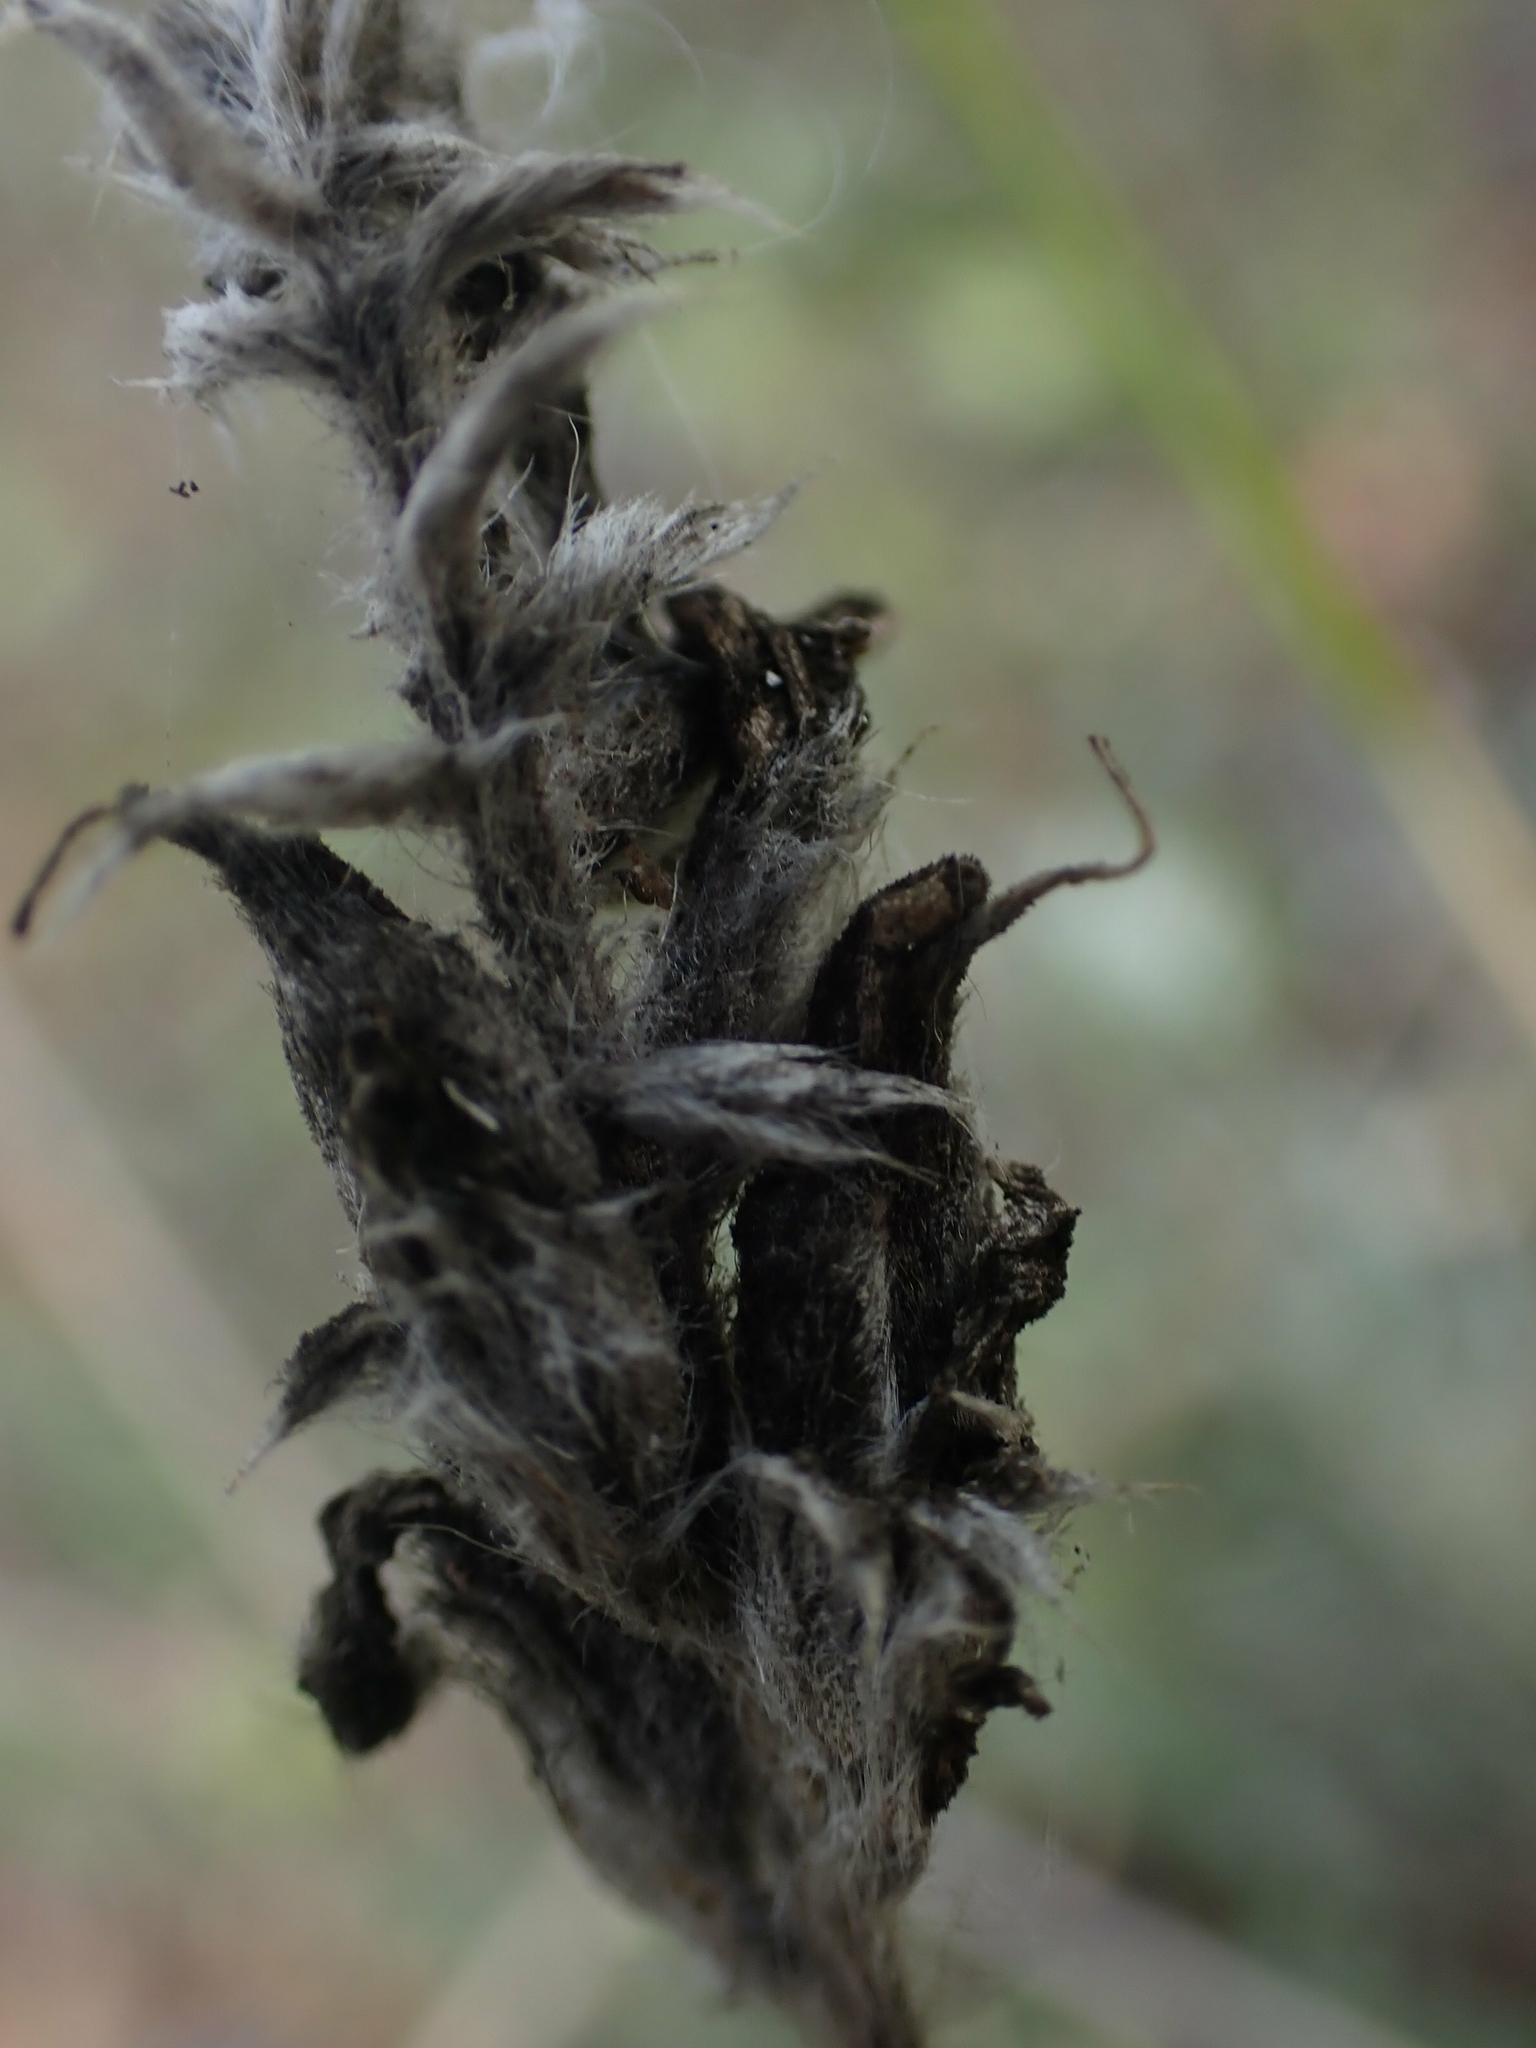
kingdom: Plantae
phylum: Tracheophyta
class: Magnoliopsida
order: Fabales
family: Fabaceae
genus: Oxytropis
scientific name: Oxytropis campestris
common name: Field locoweed
